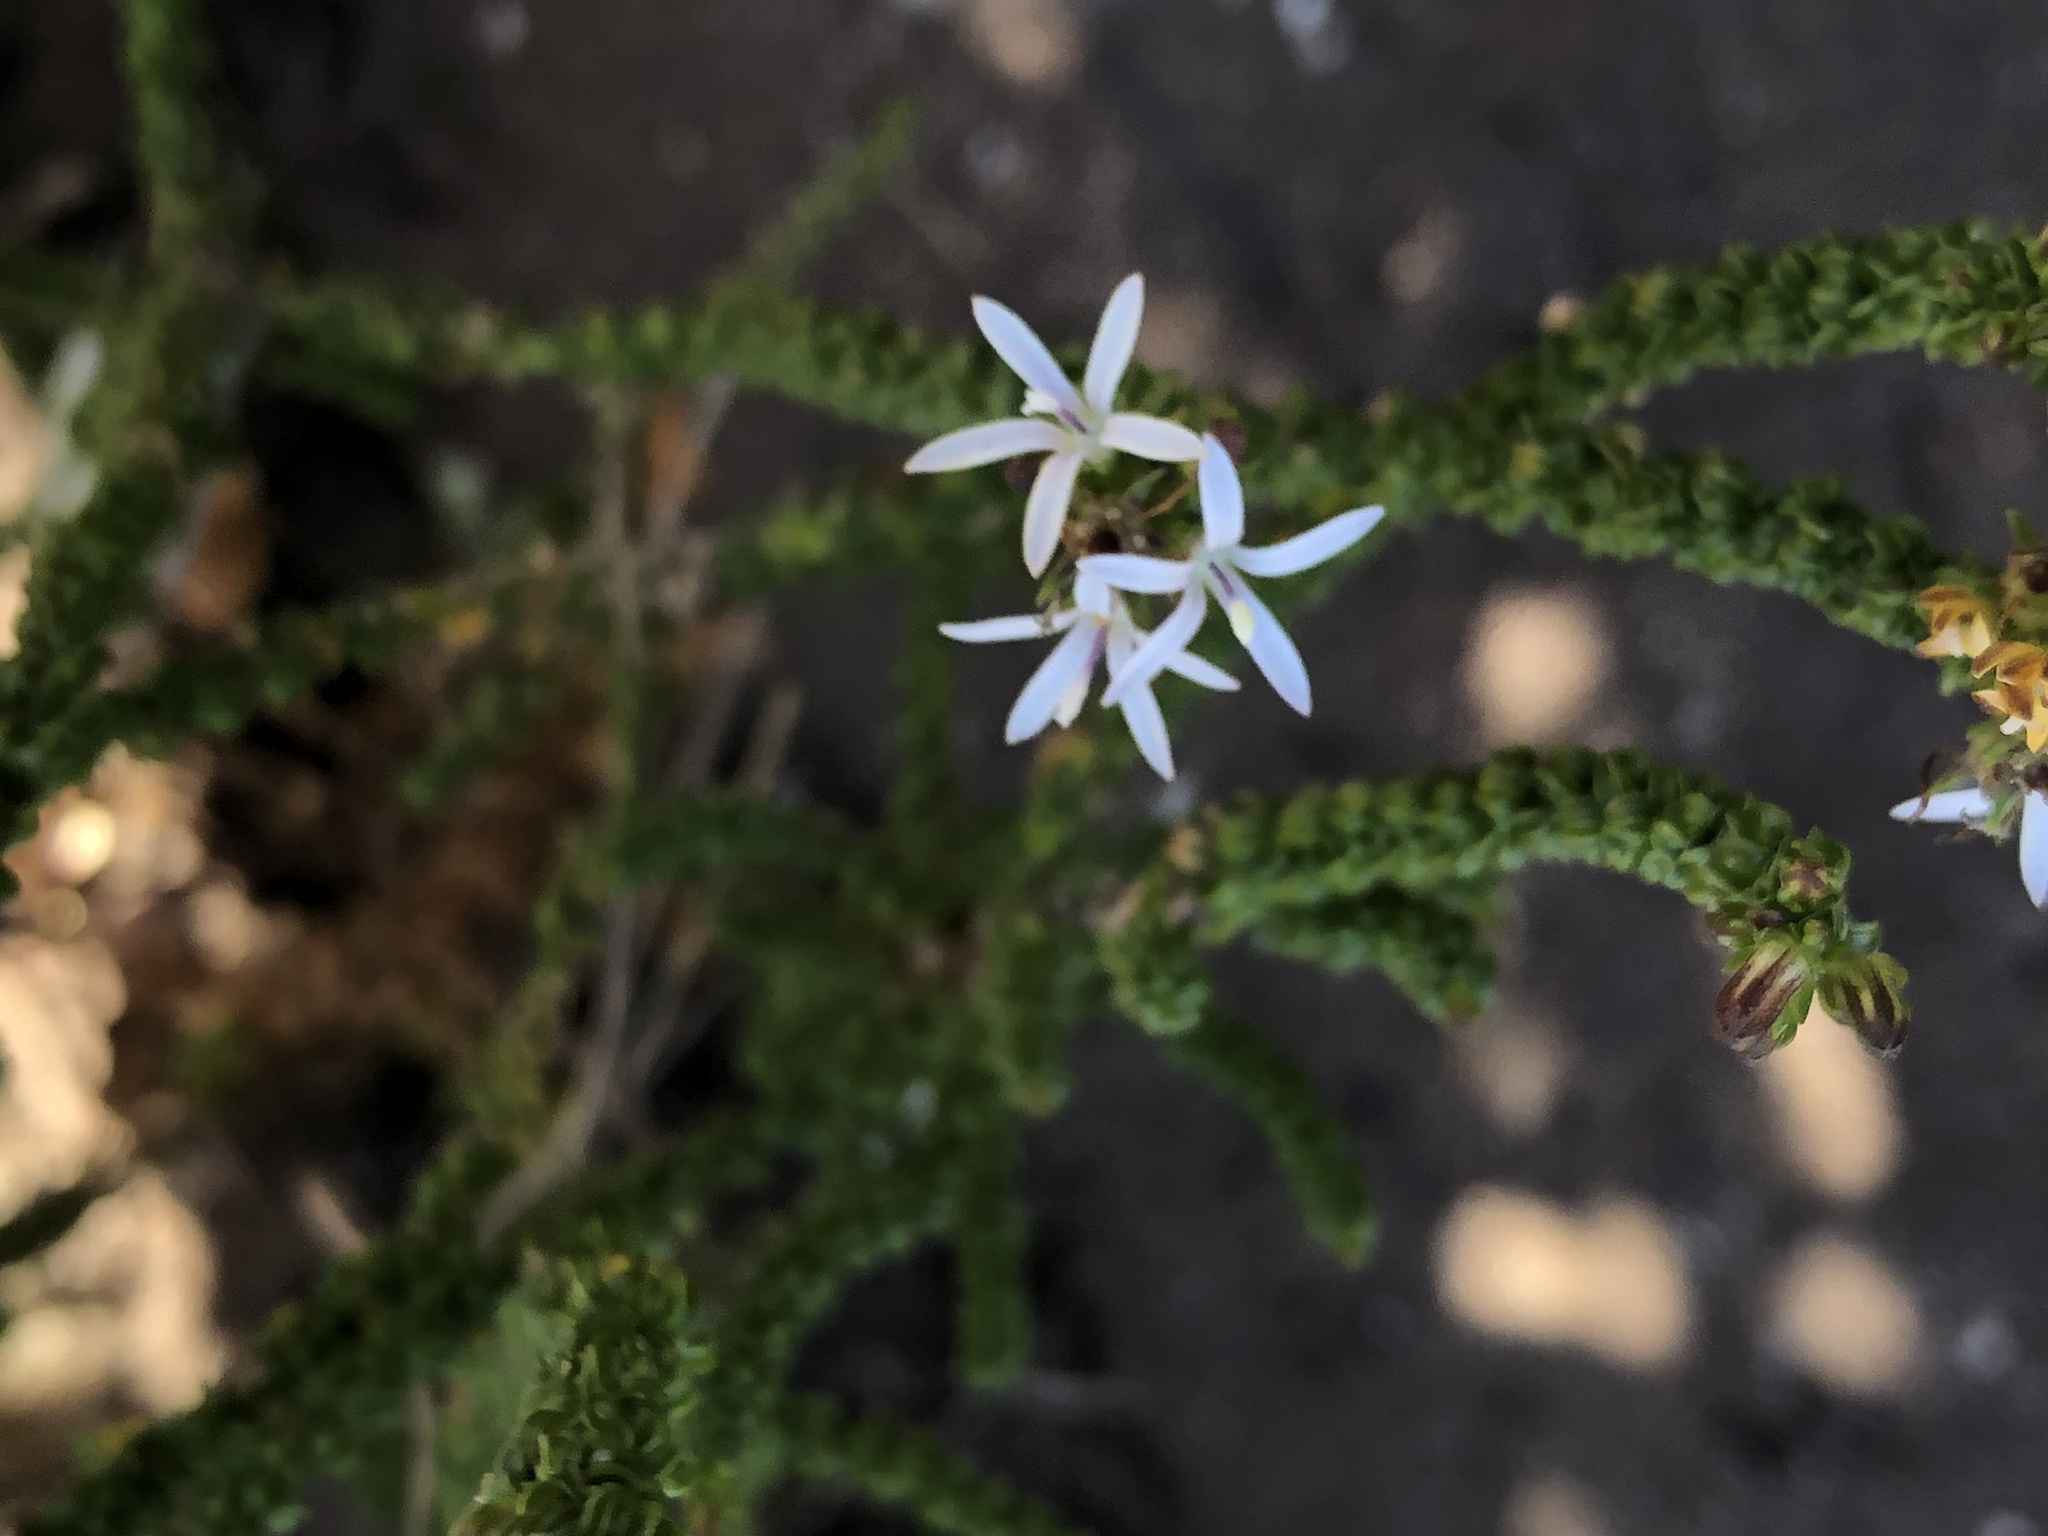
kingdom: Plantae
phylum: Tracheophyta
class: Magnoliopsida
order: Asterales
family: Campanulaceae
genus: Wahlenbergia
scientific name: Wahlenbergia tenella
